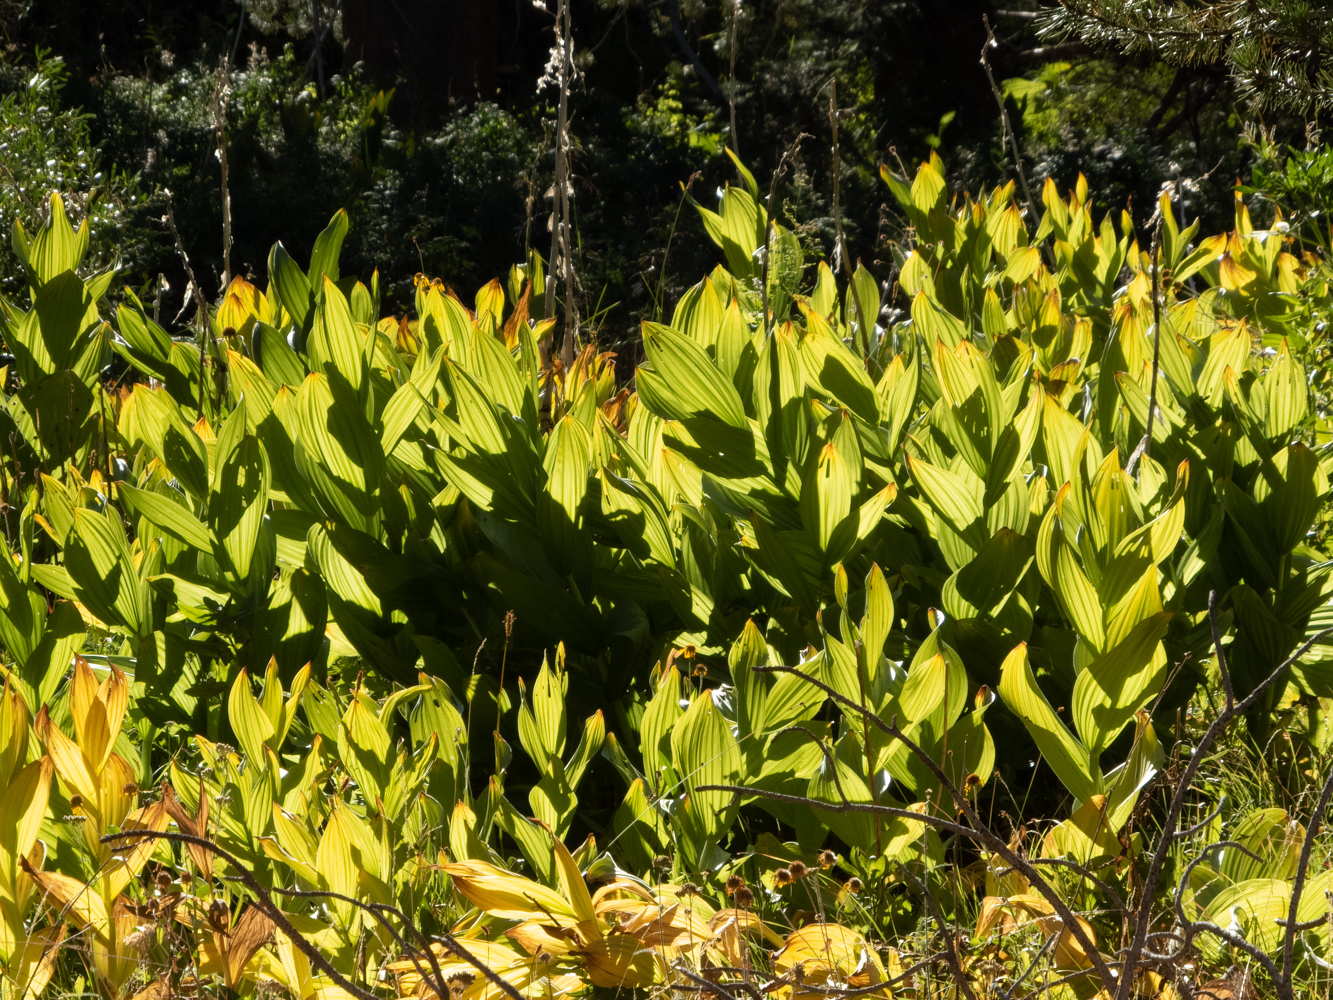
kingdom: Plantae
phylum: Tracheophyta
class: Liliopsida
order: Liliales
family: Melanthiaceae
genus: Veratrum
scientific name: Veratrum californicum
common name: California veratrum
